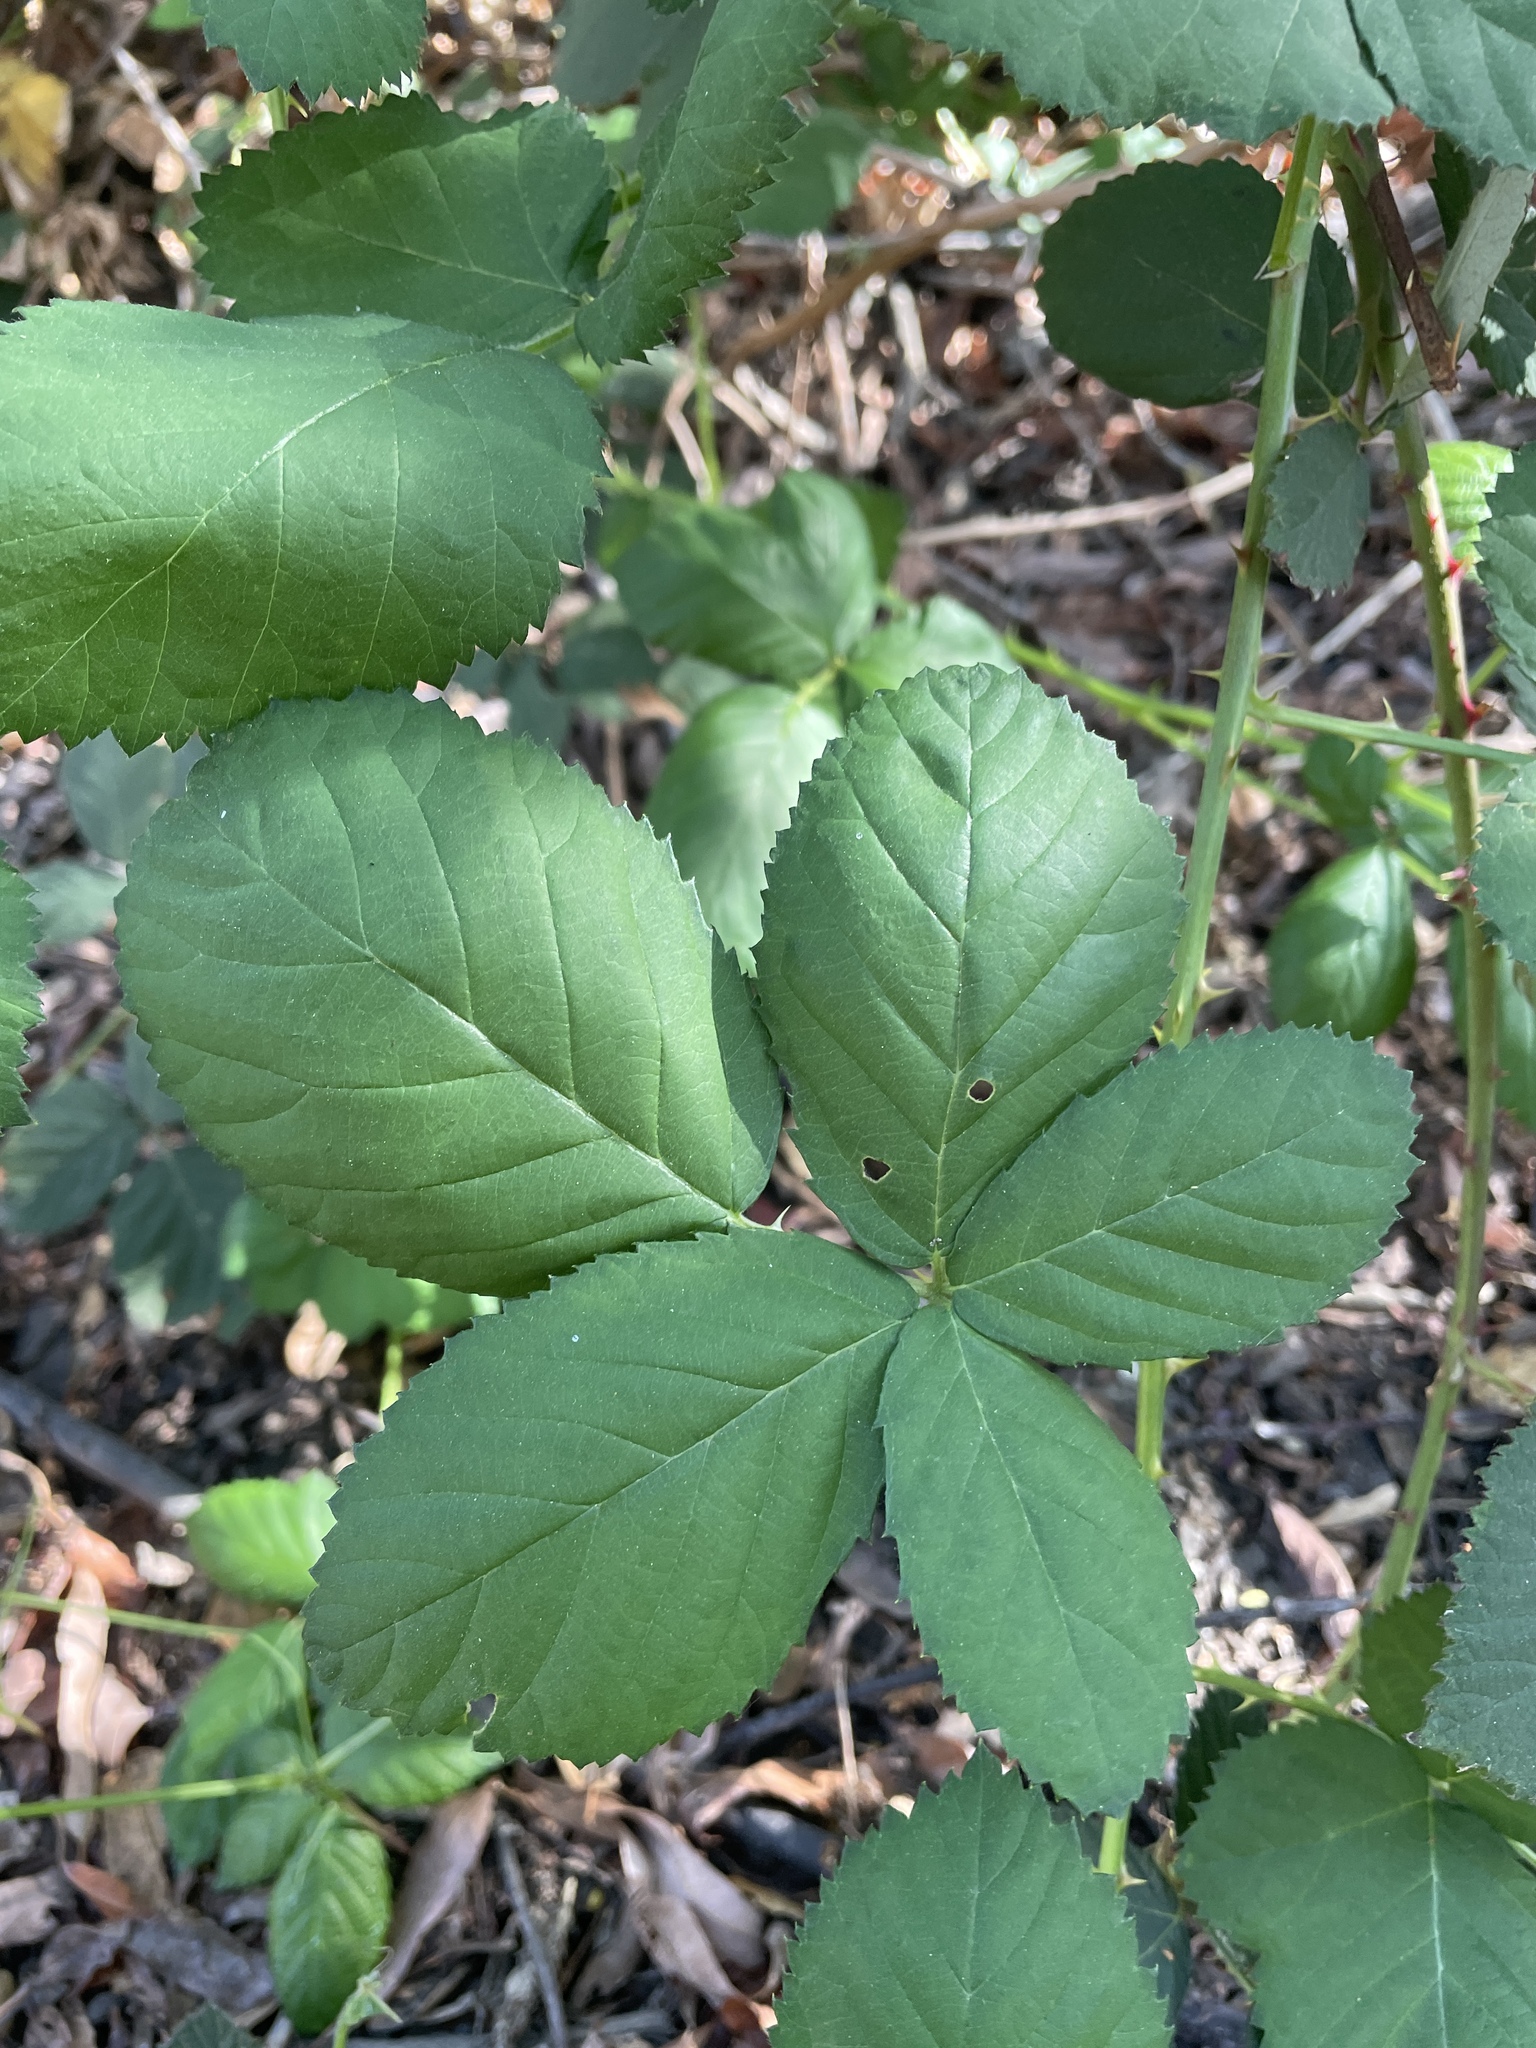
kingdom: Plantae
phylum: Tracheophyta
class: Magnoliopsida
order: Rosales
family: Rosaceae
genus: Rubus
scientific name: Rubus armeniacus
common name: Himalayan blackberry
